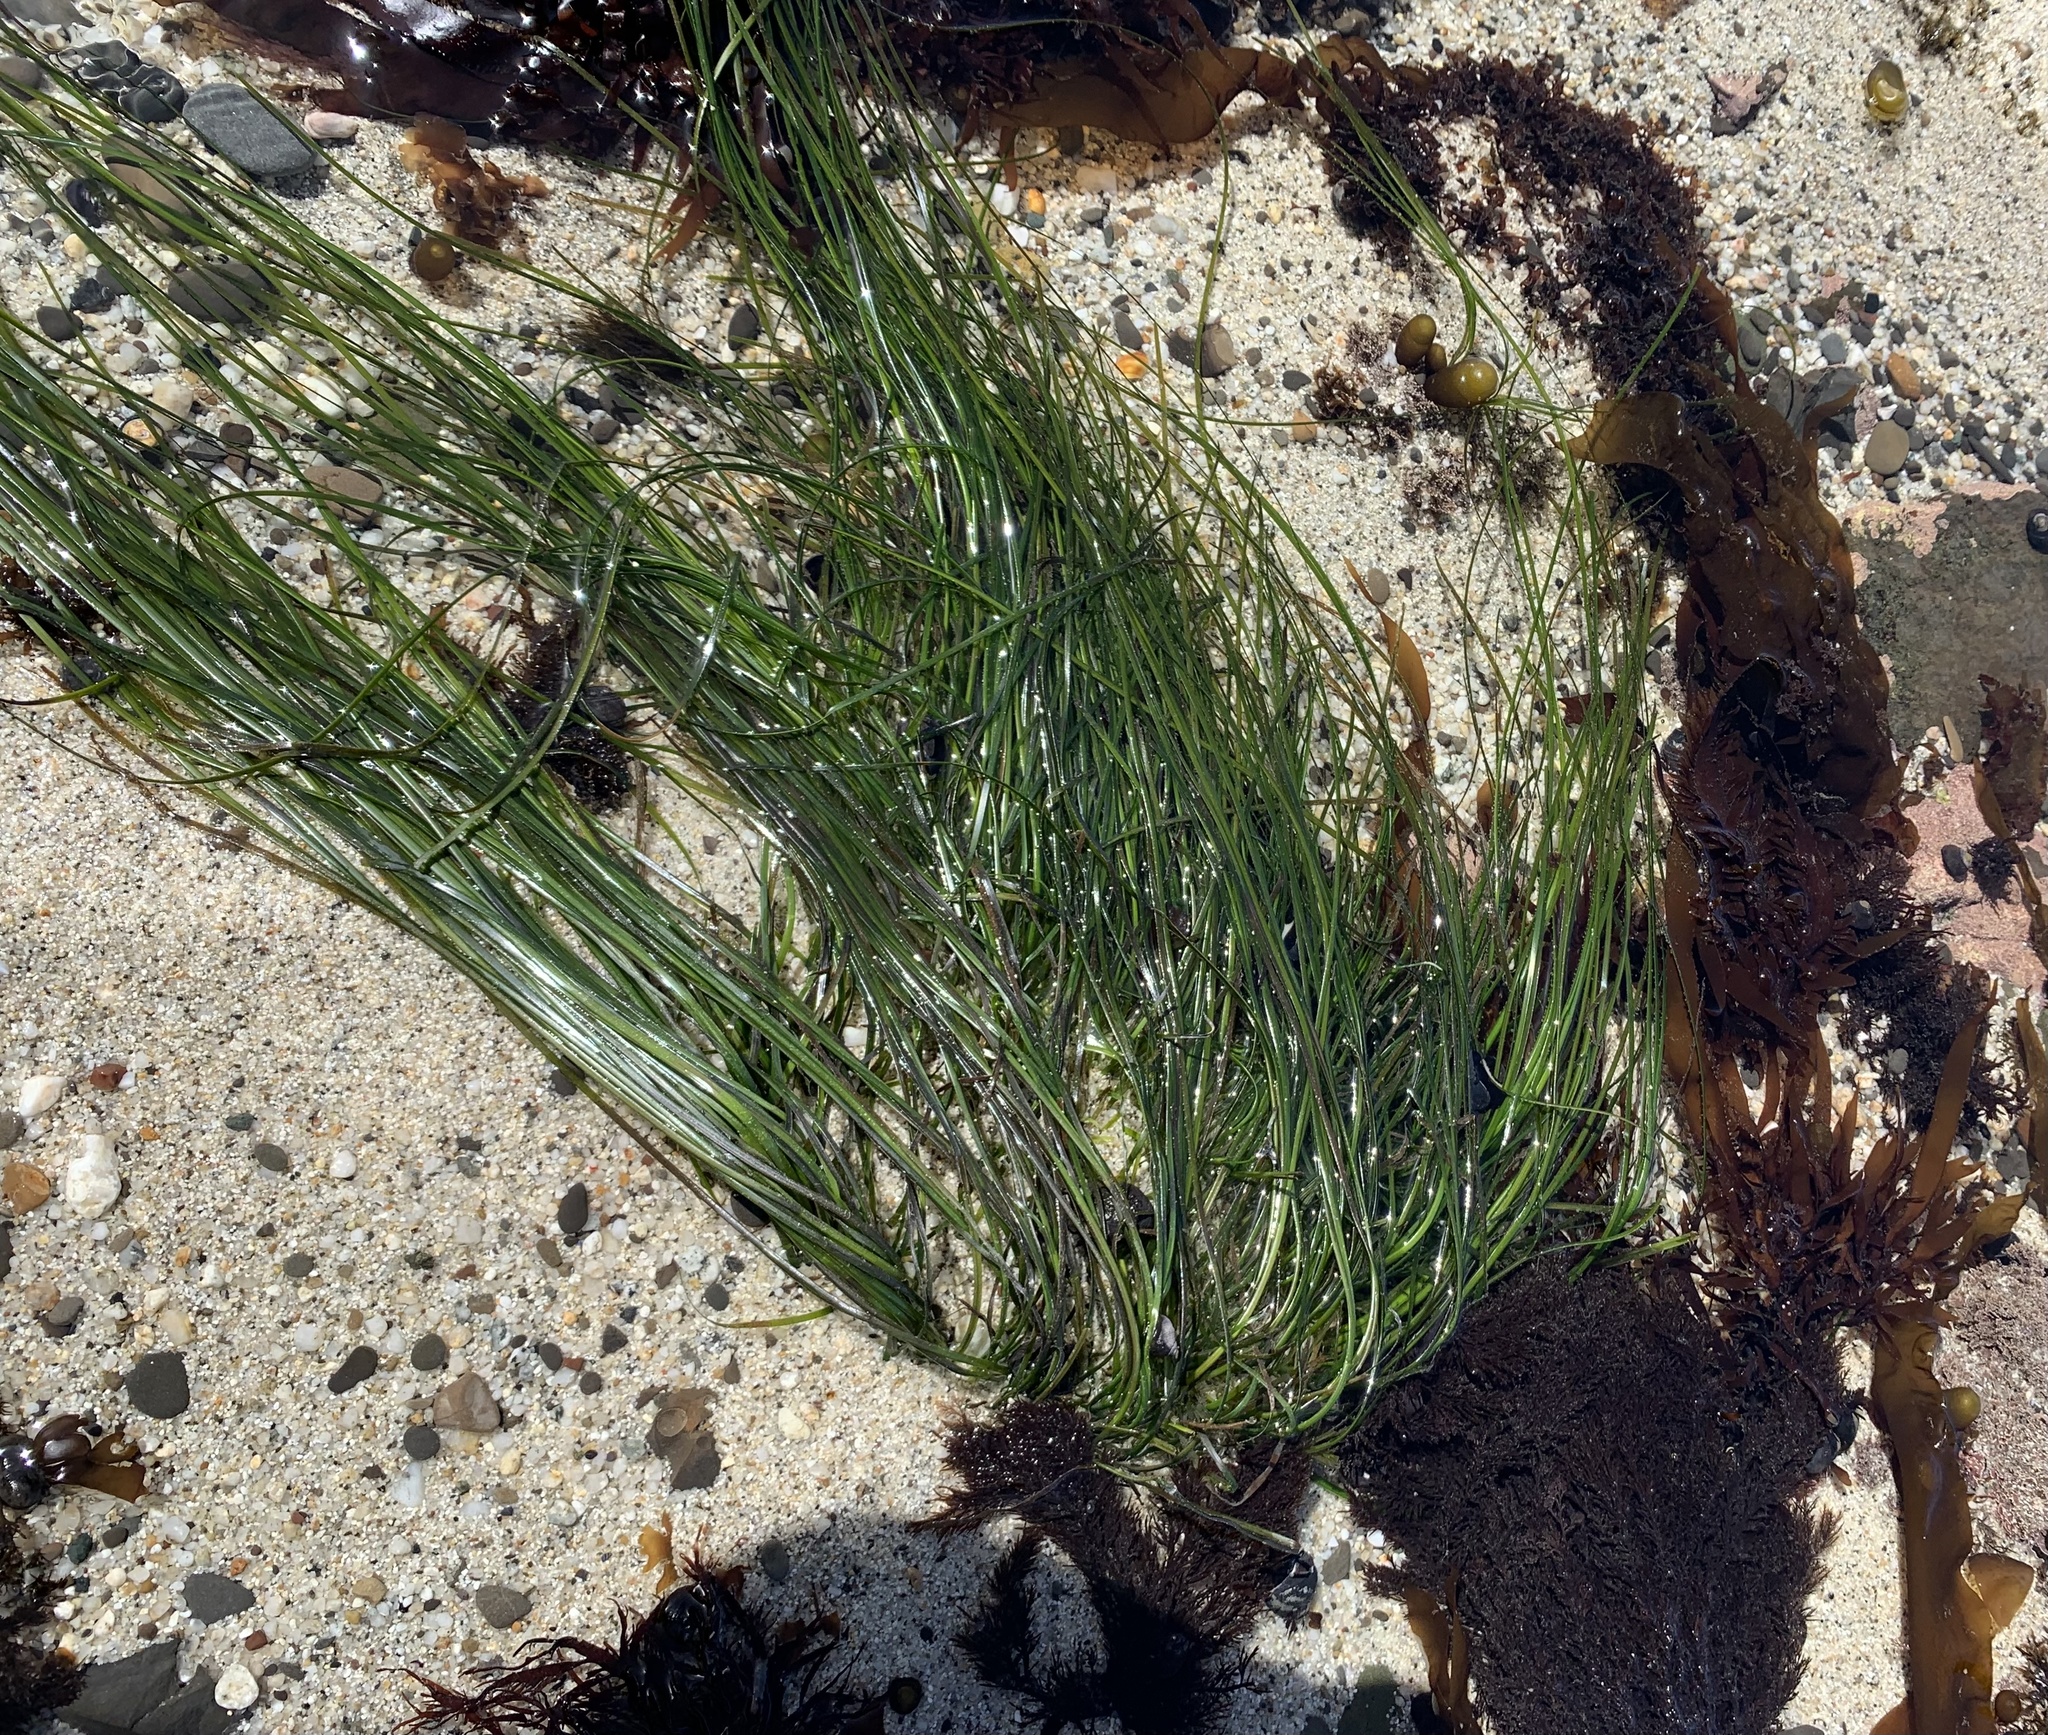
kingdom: Plantae
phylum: Tracheophyta
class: Liliopsida
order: Alismatales
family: Zosteraceae
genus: Phyllospadix
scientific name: Phyllospadix torreyi
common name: Surfgrass
